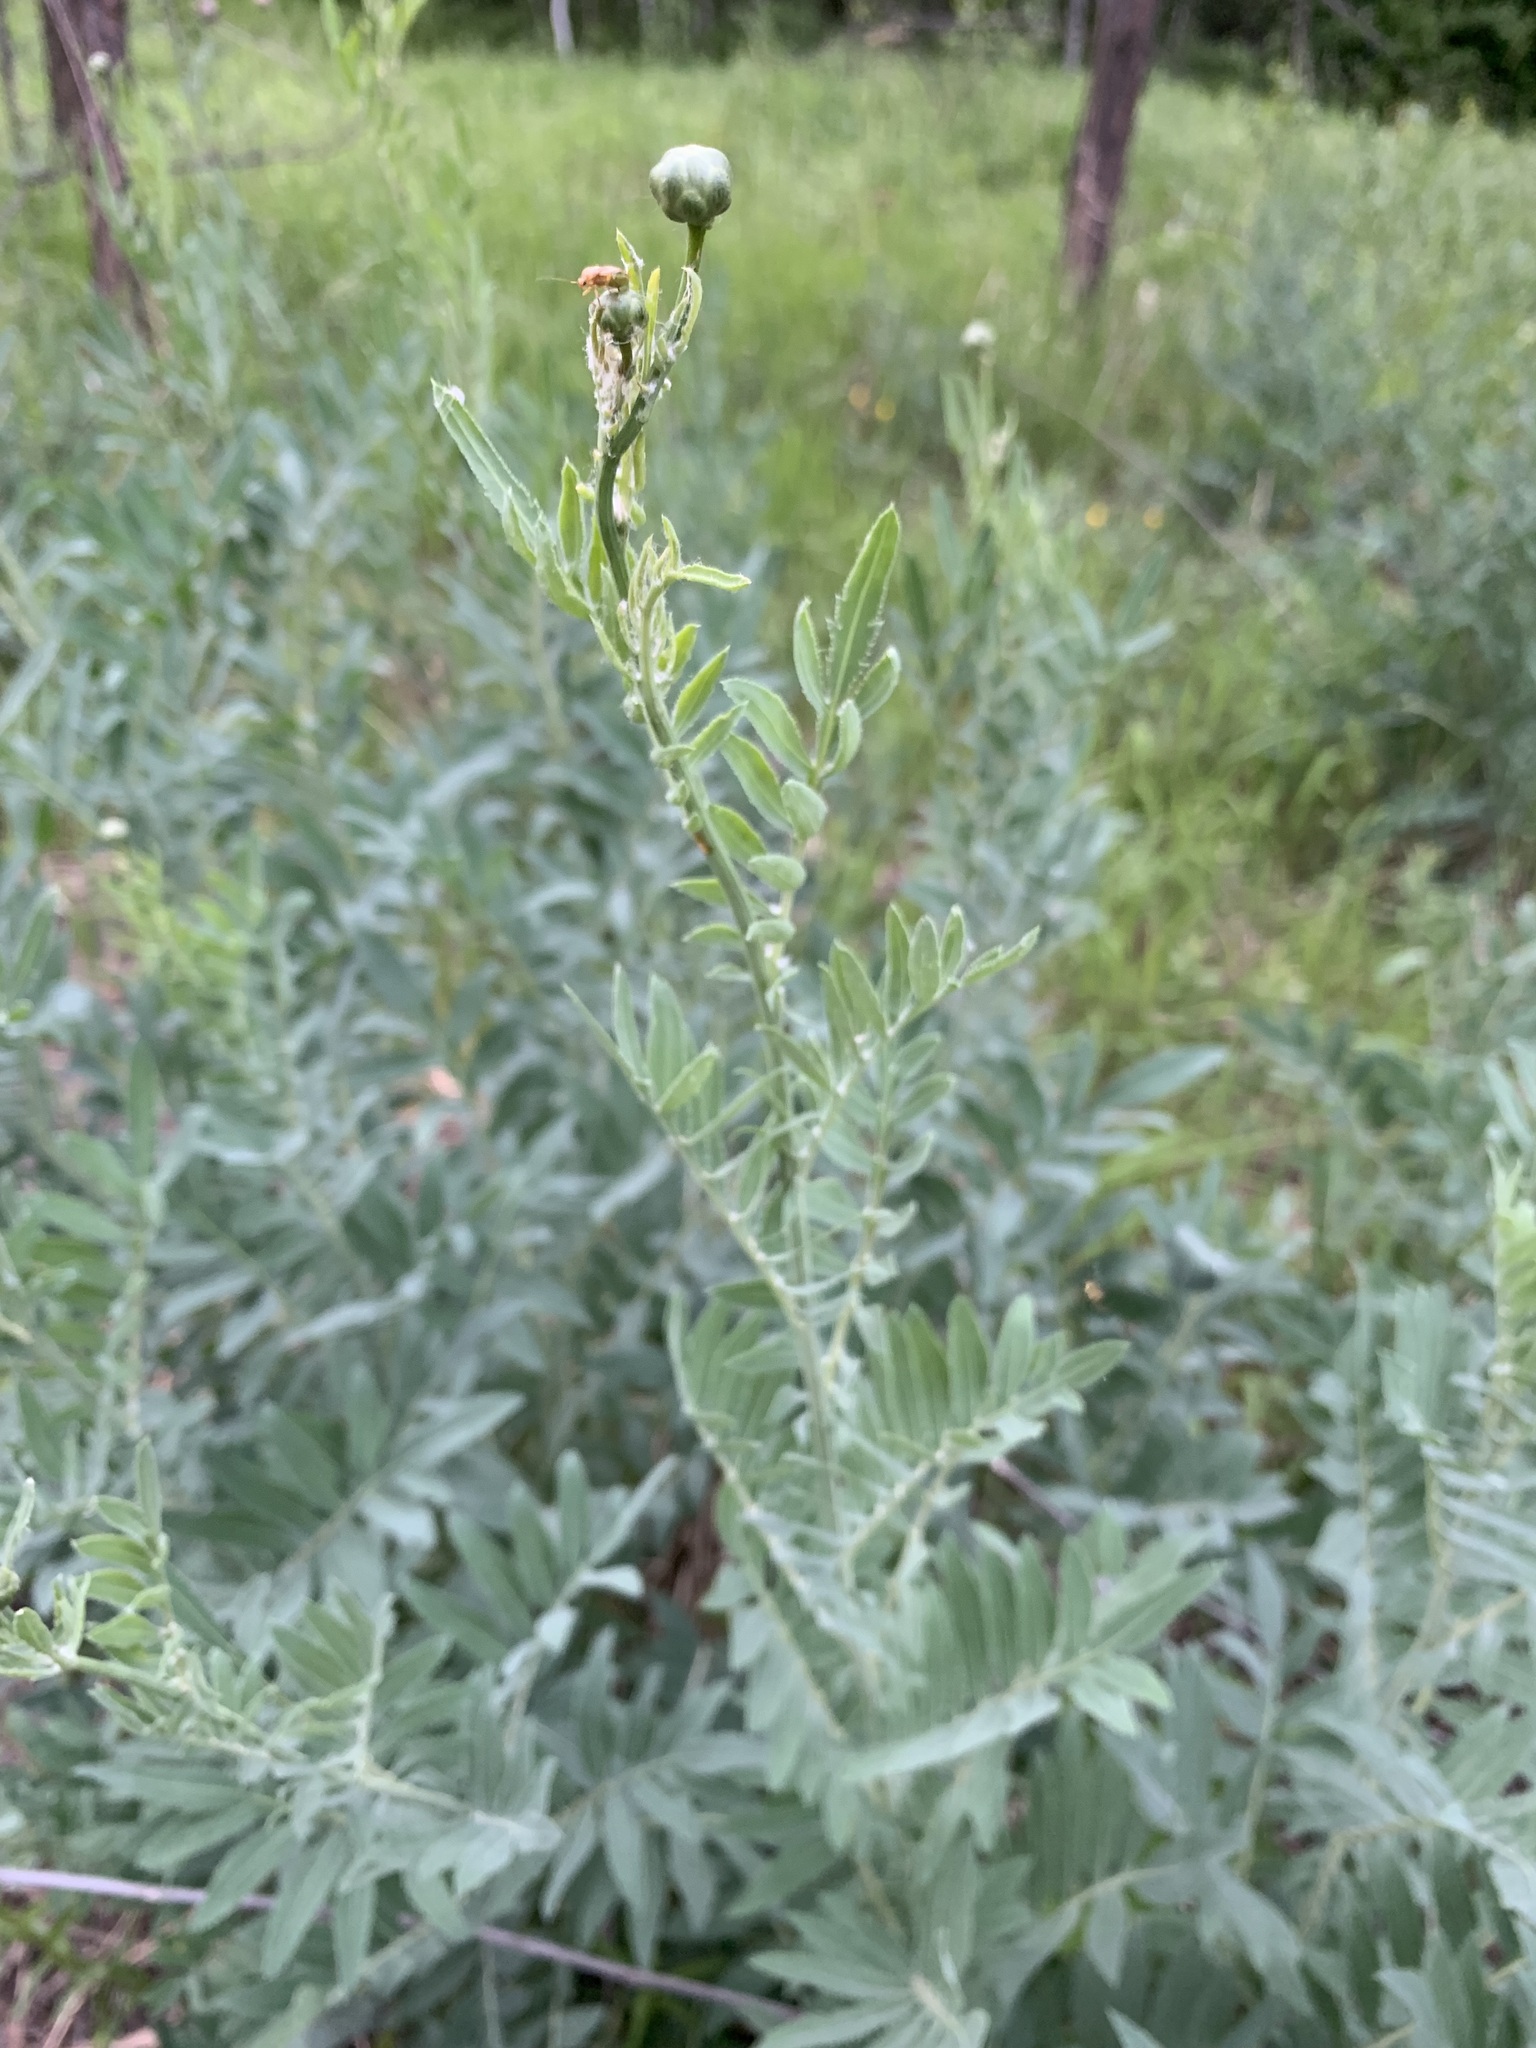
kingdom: Plantae
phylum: Tracheophyta
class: Magnoliopsida
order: Asterales
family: Asteraceae
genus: Rhaponticoides
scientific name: Rhaponticoides ruthenica
